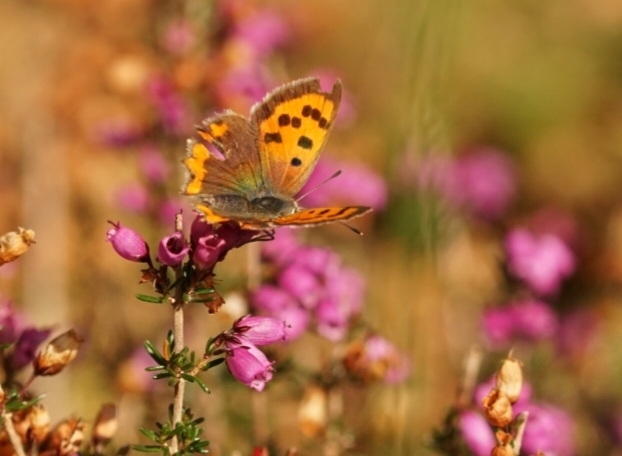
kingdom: Animalia
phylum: Arthropoda
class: Insecta
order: Lepidoptera
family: Lycaenidae
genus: Lycaena
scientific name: Lycaena phlaeas
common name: Small copper
